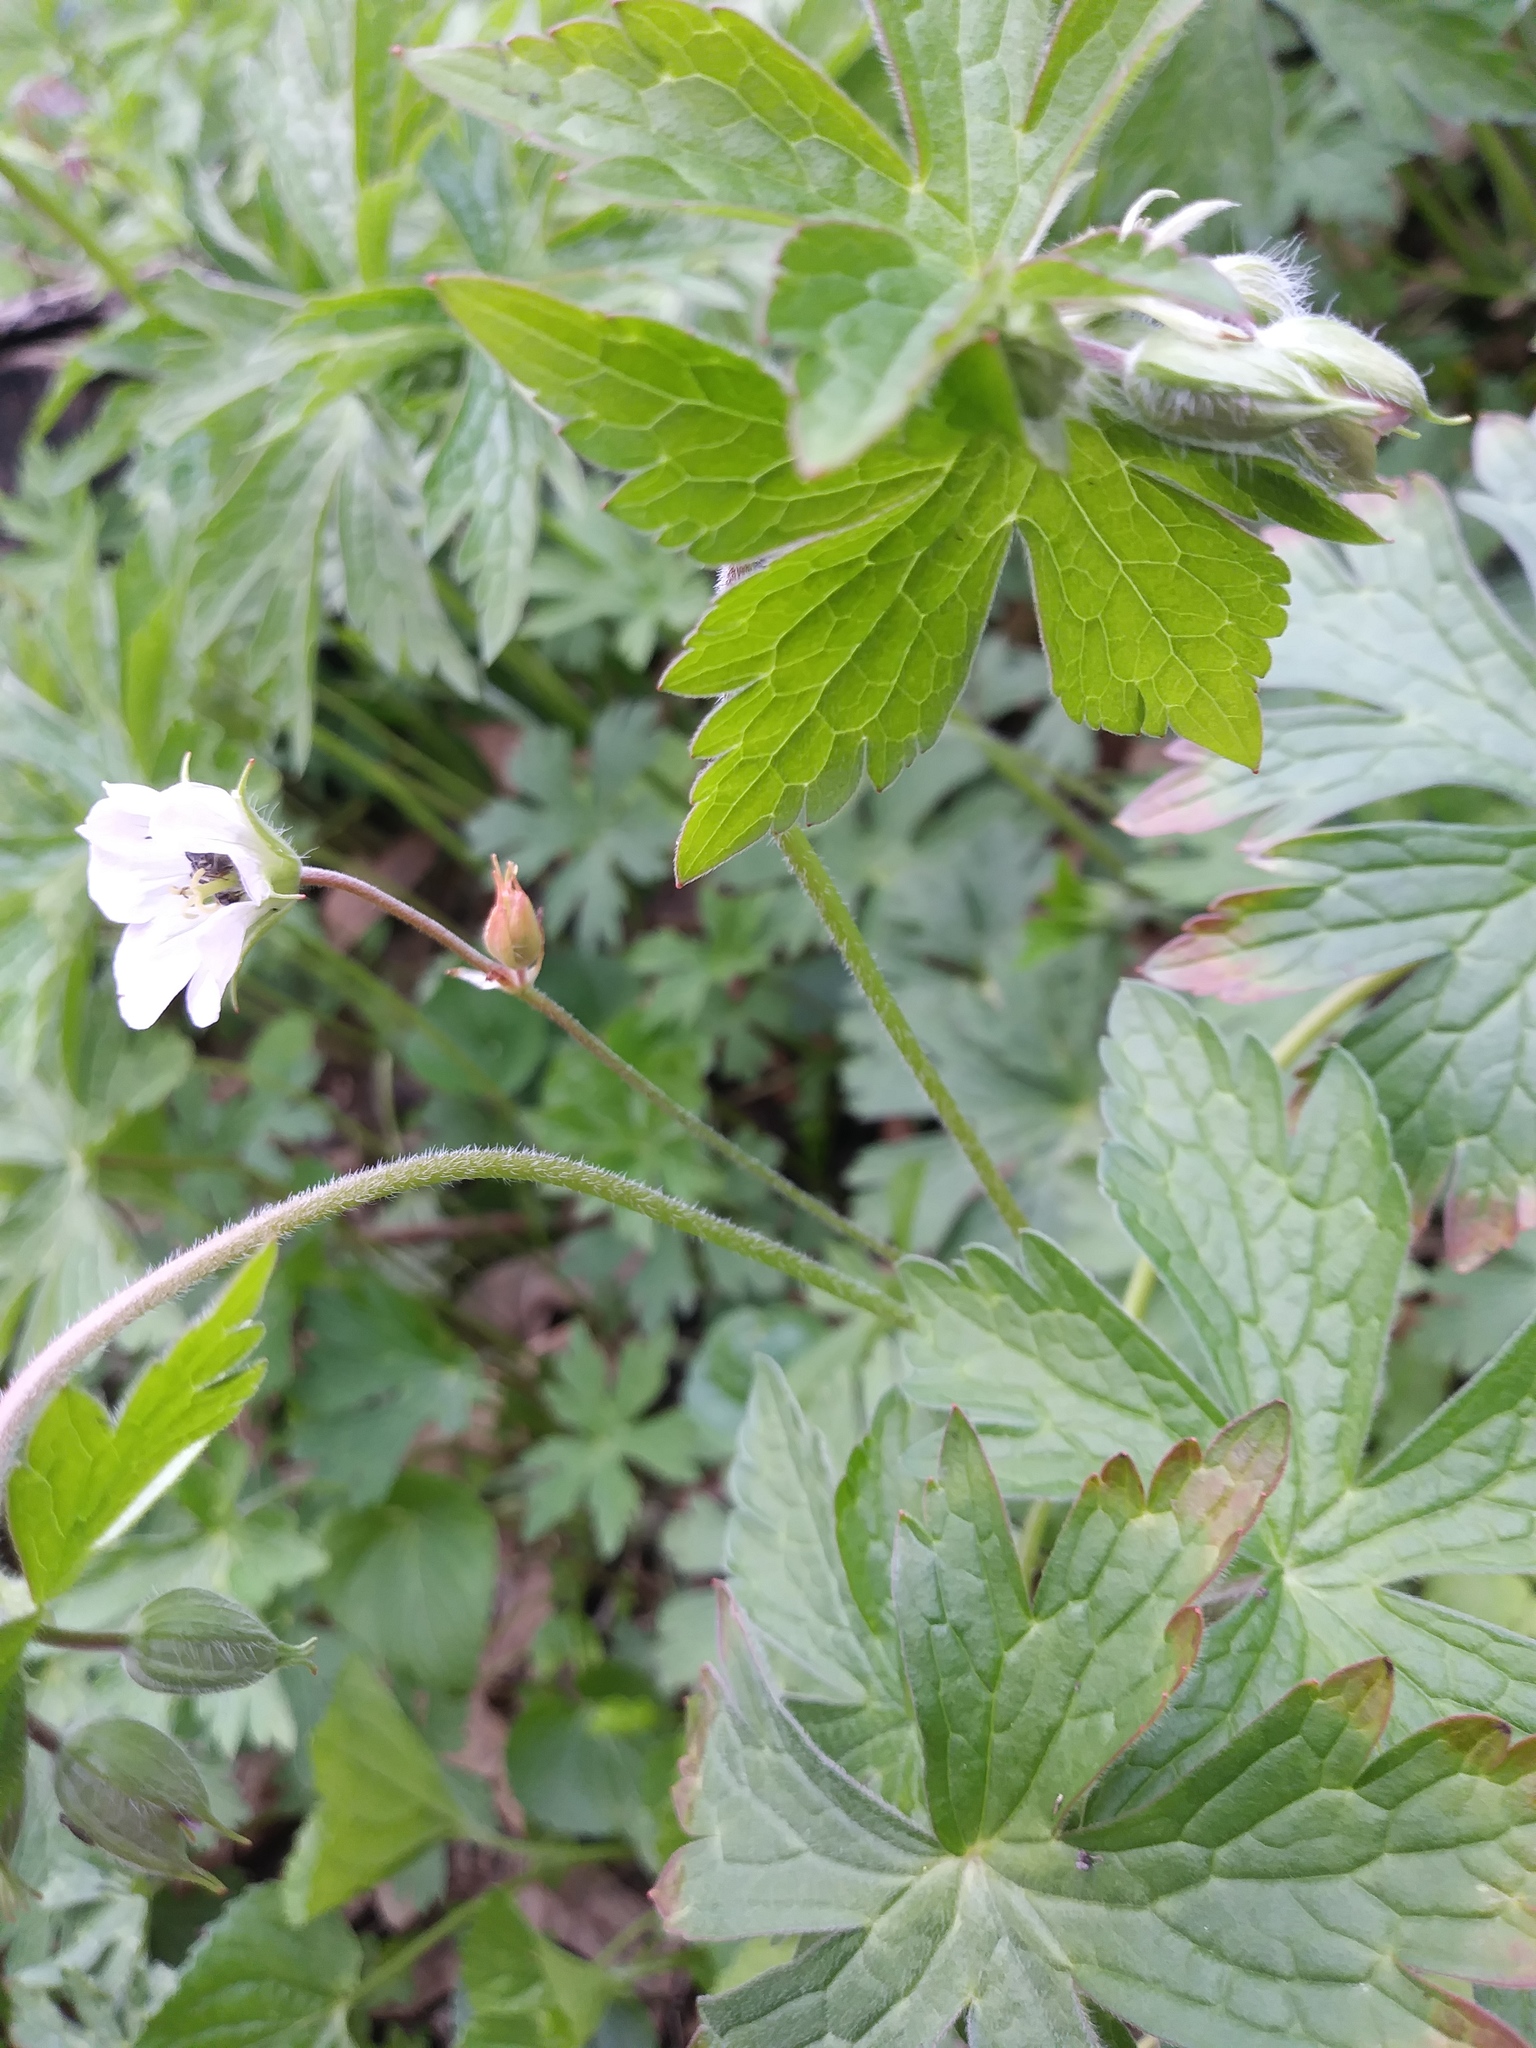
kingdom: Plantae
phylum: Tracheophyta
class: Magnoliopsida
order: Geraniales
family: Geraniaceae
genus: Geranium
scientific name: Geranium maculatum
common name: Spotted geranium
